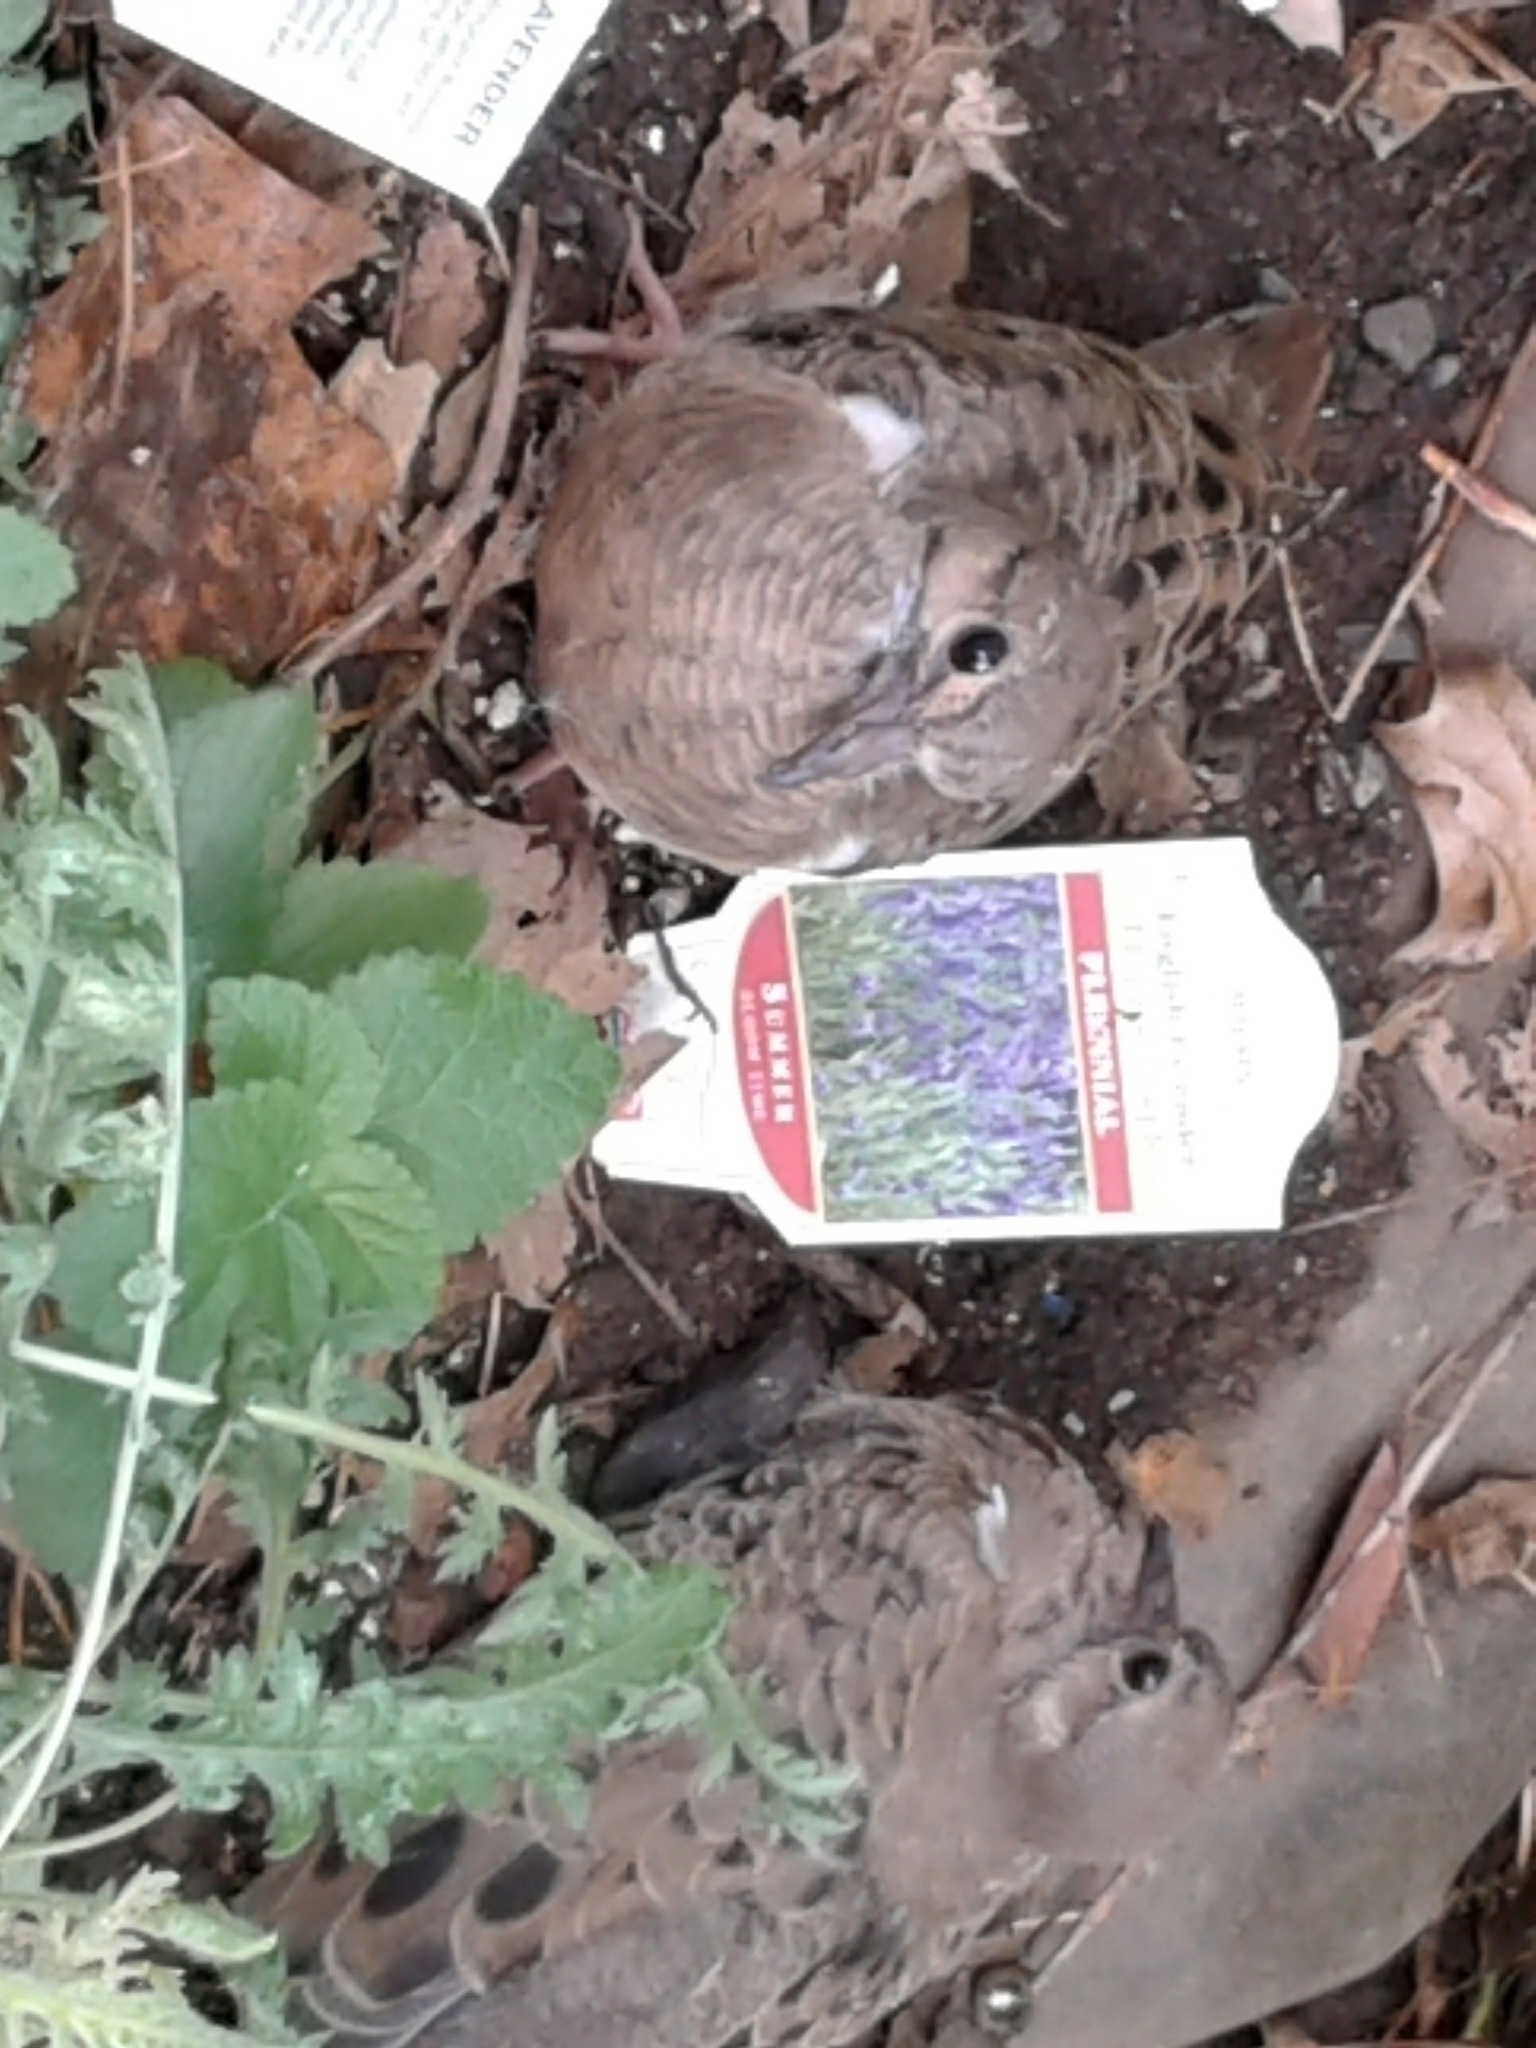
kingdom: Animalia
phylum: Chordata
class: Aves
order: Columbiformes
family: Columbidae
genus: Zenaida
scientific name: Zenaida macroura
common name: Mourning dove
